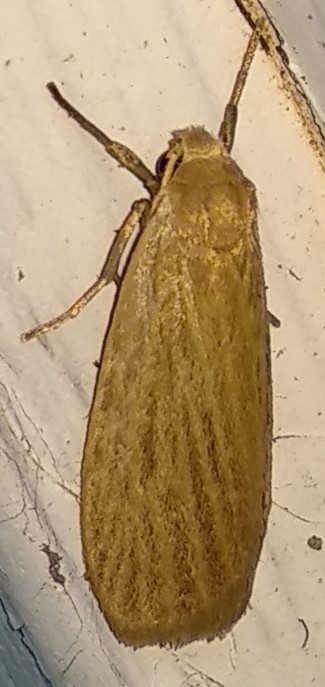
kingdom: Animalia
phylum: Arthropoda
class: Insecta
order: Lepidoptera
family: Erebidae
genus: Crambidia
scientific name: Crambidia pallida
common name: Pale lichen moth
